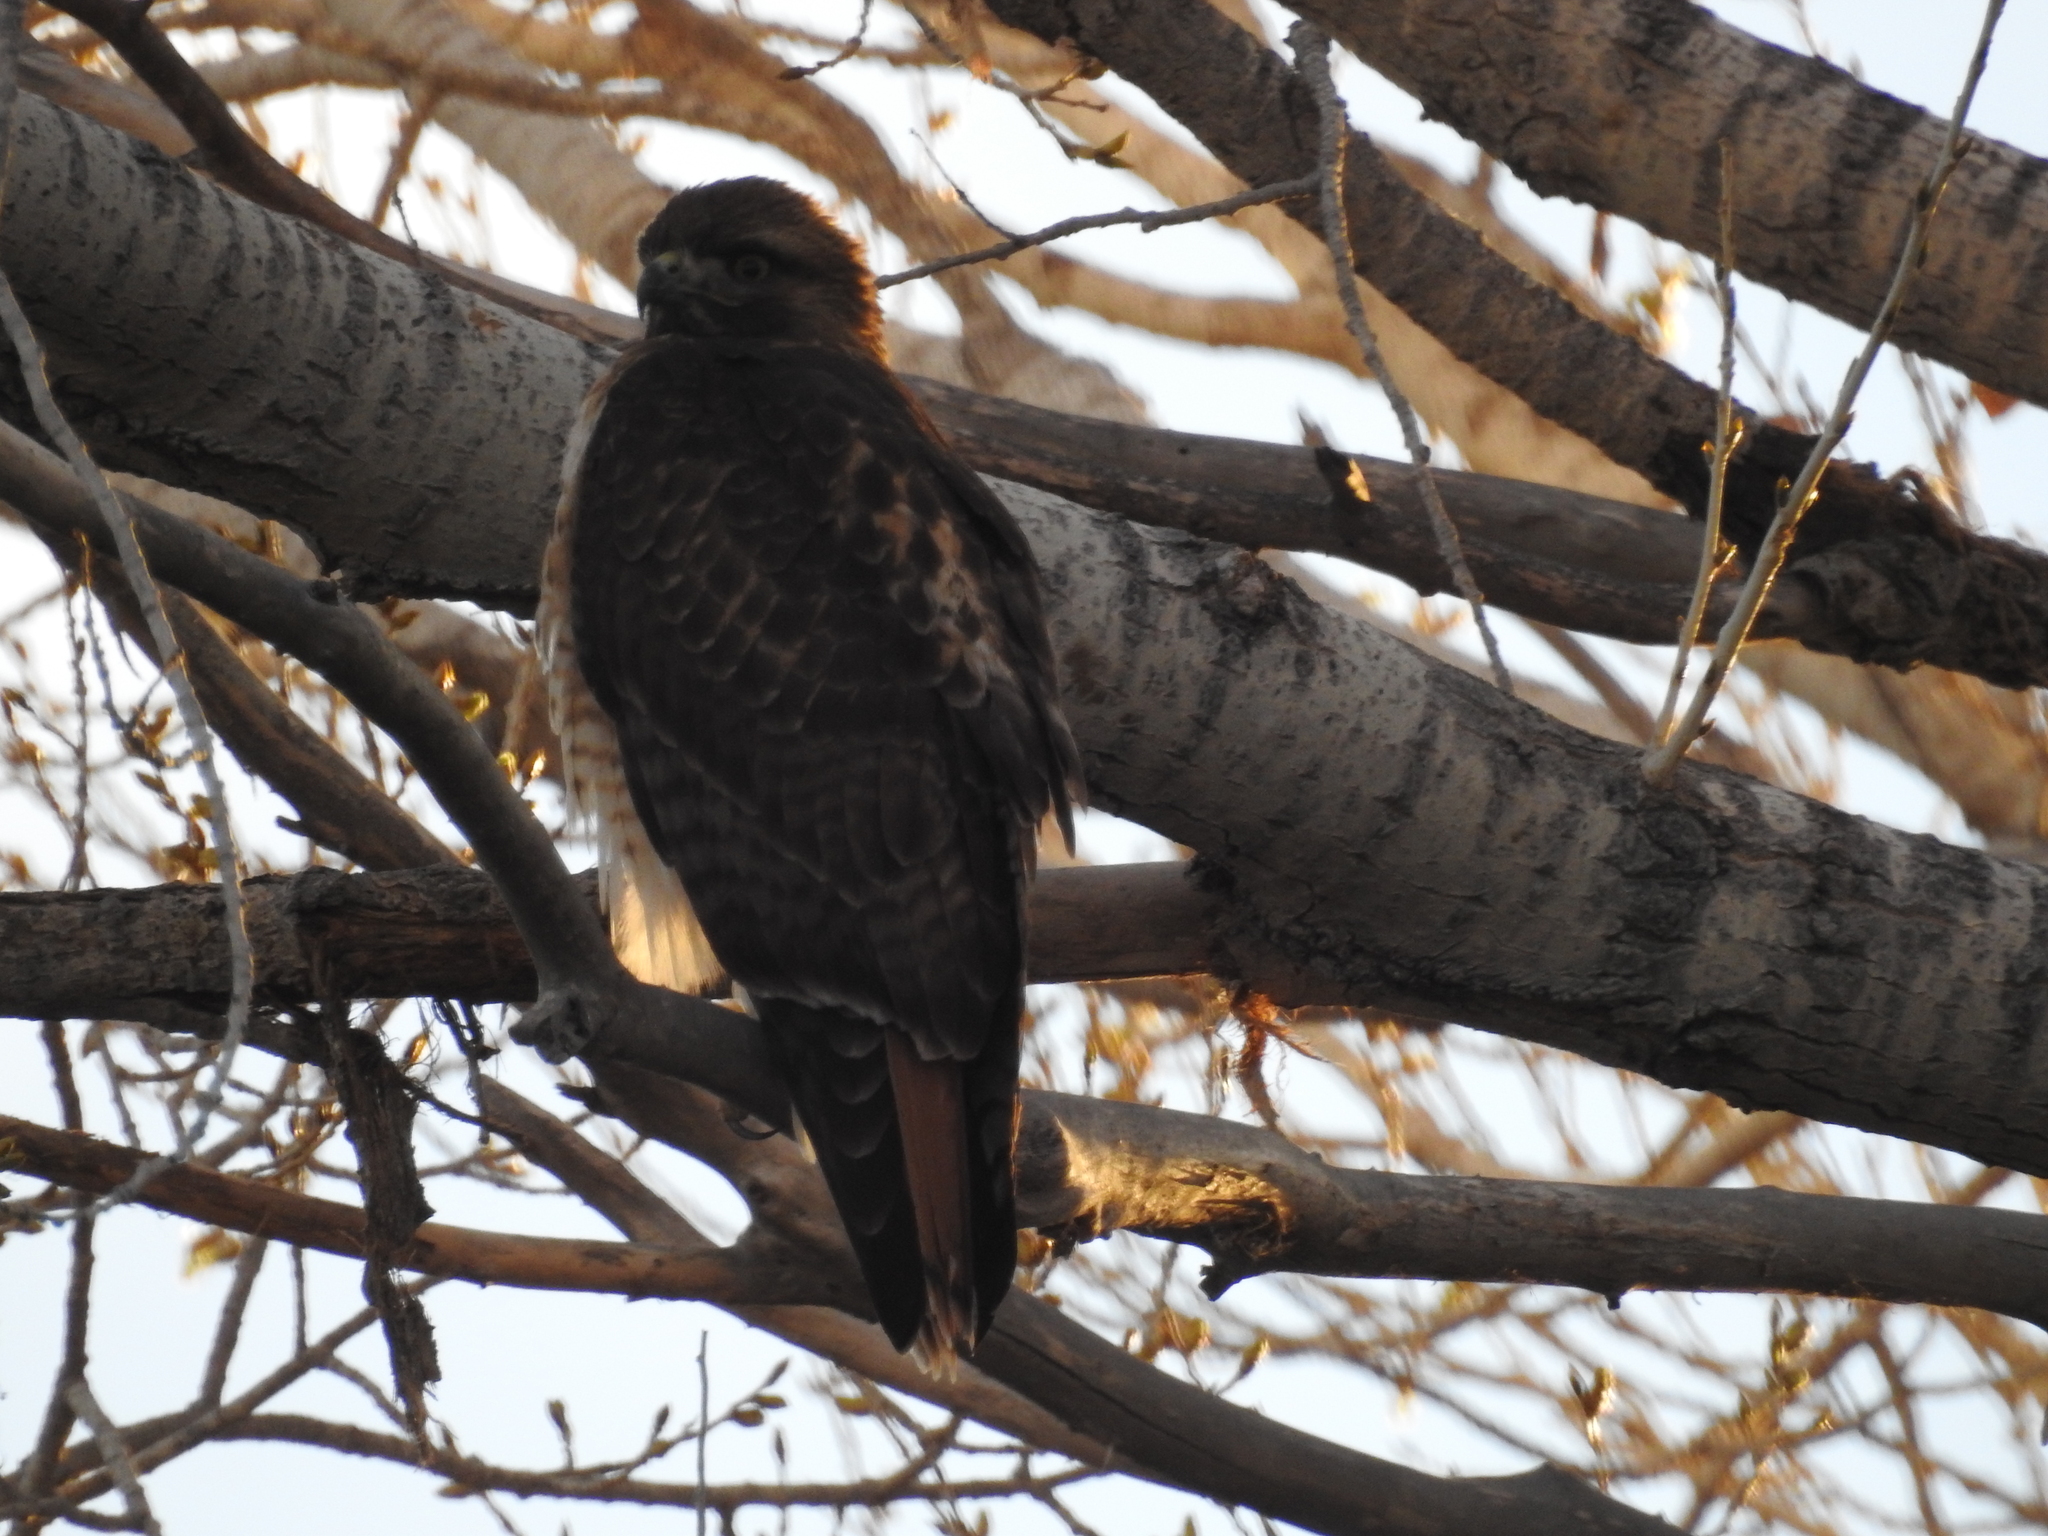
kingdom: Animalia
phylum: Chordata
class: Aves
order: Accipitriformes
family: Accipitridae
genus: Buteo
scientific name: Buteo jamaicensis
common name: Red-tailed hawk
